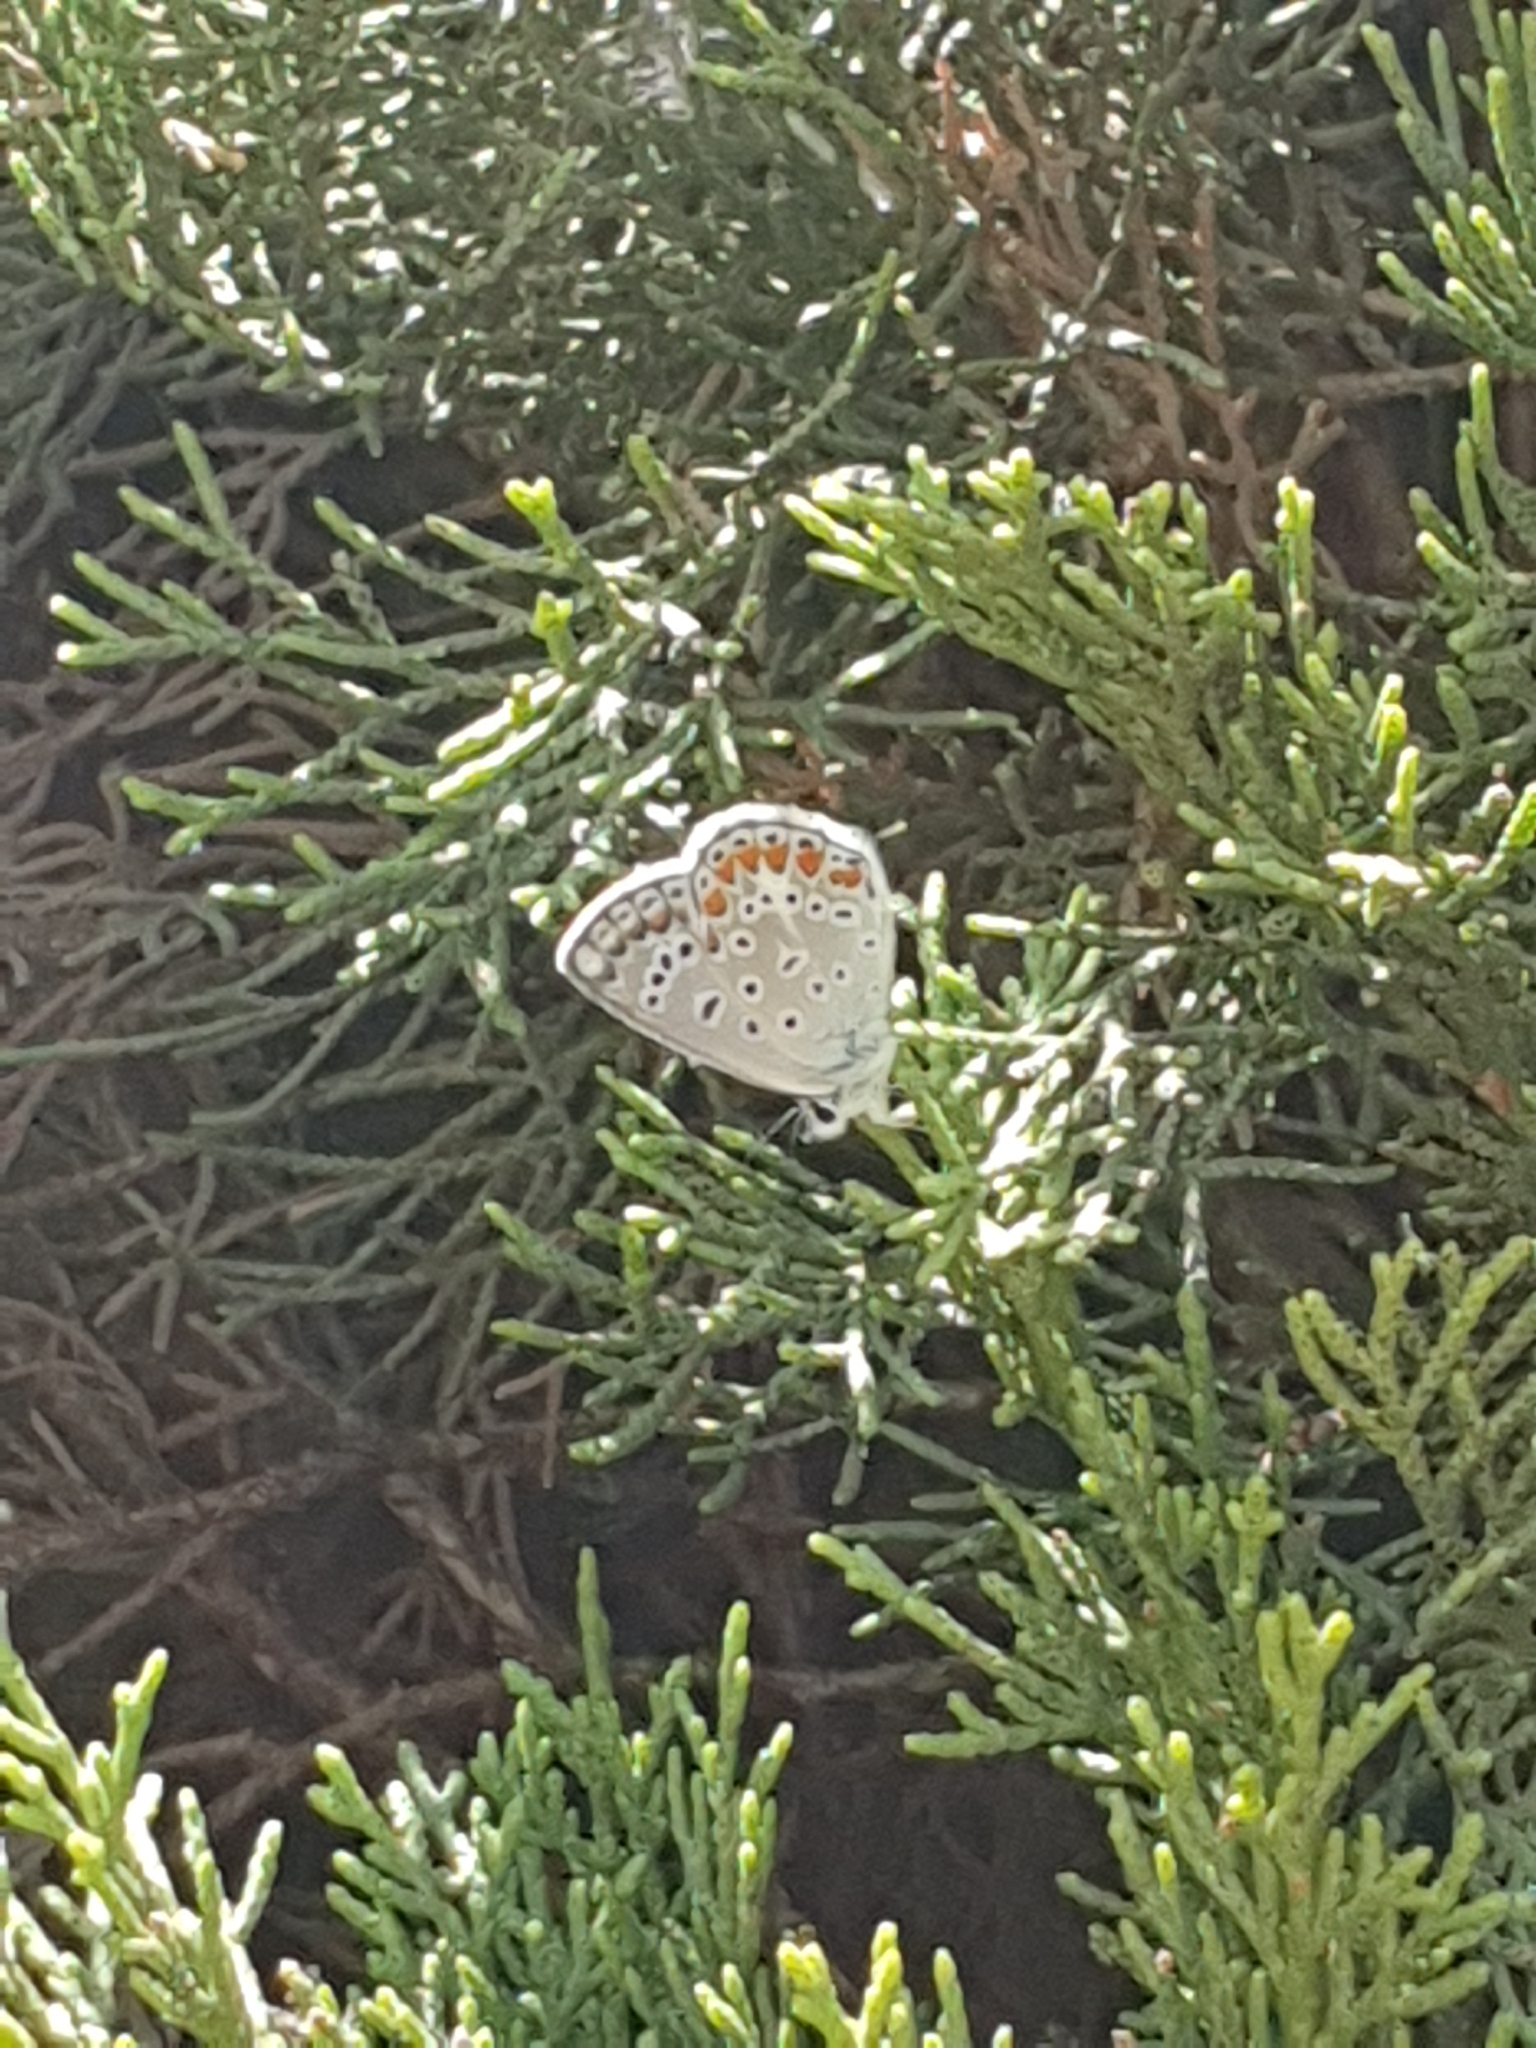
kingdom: Animalia
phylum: Arthropoda
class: Insecta
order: Lepidoptera
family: Lycaenidae
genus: Polyommatus
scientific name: Polyommatus icarus
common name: Common blue
